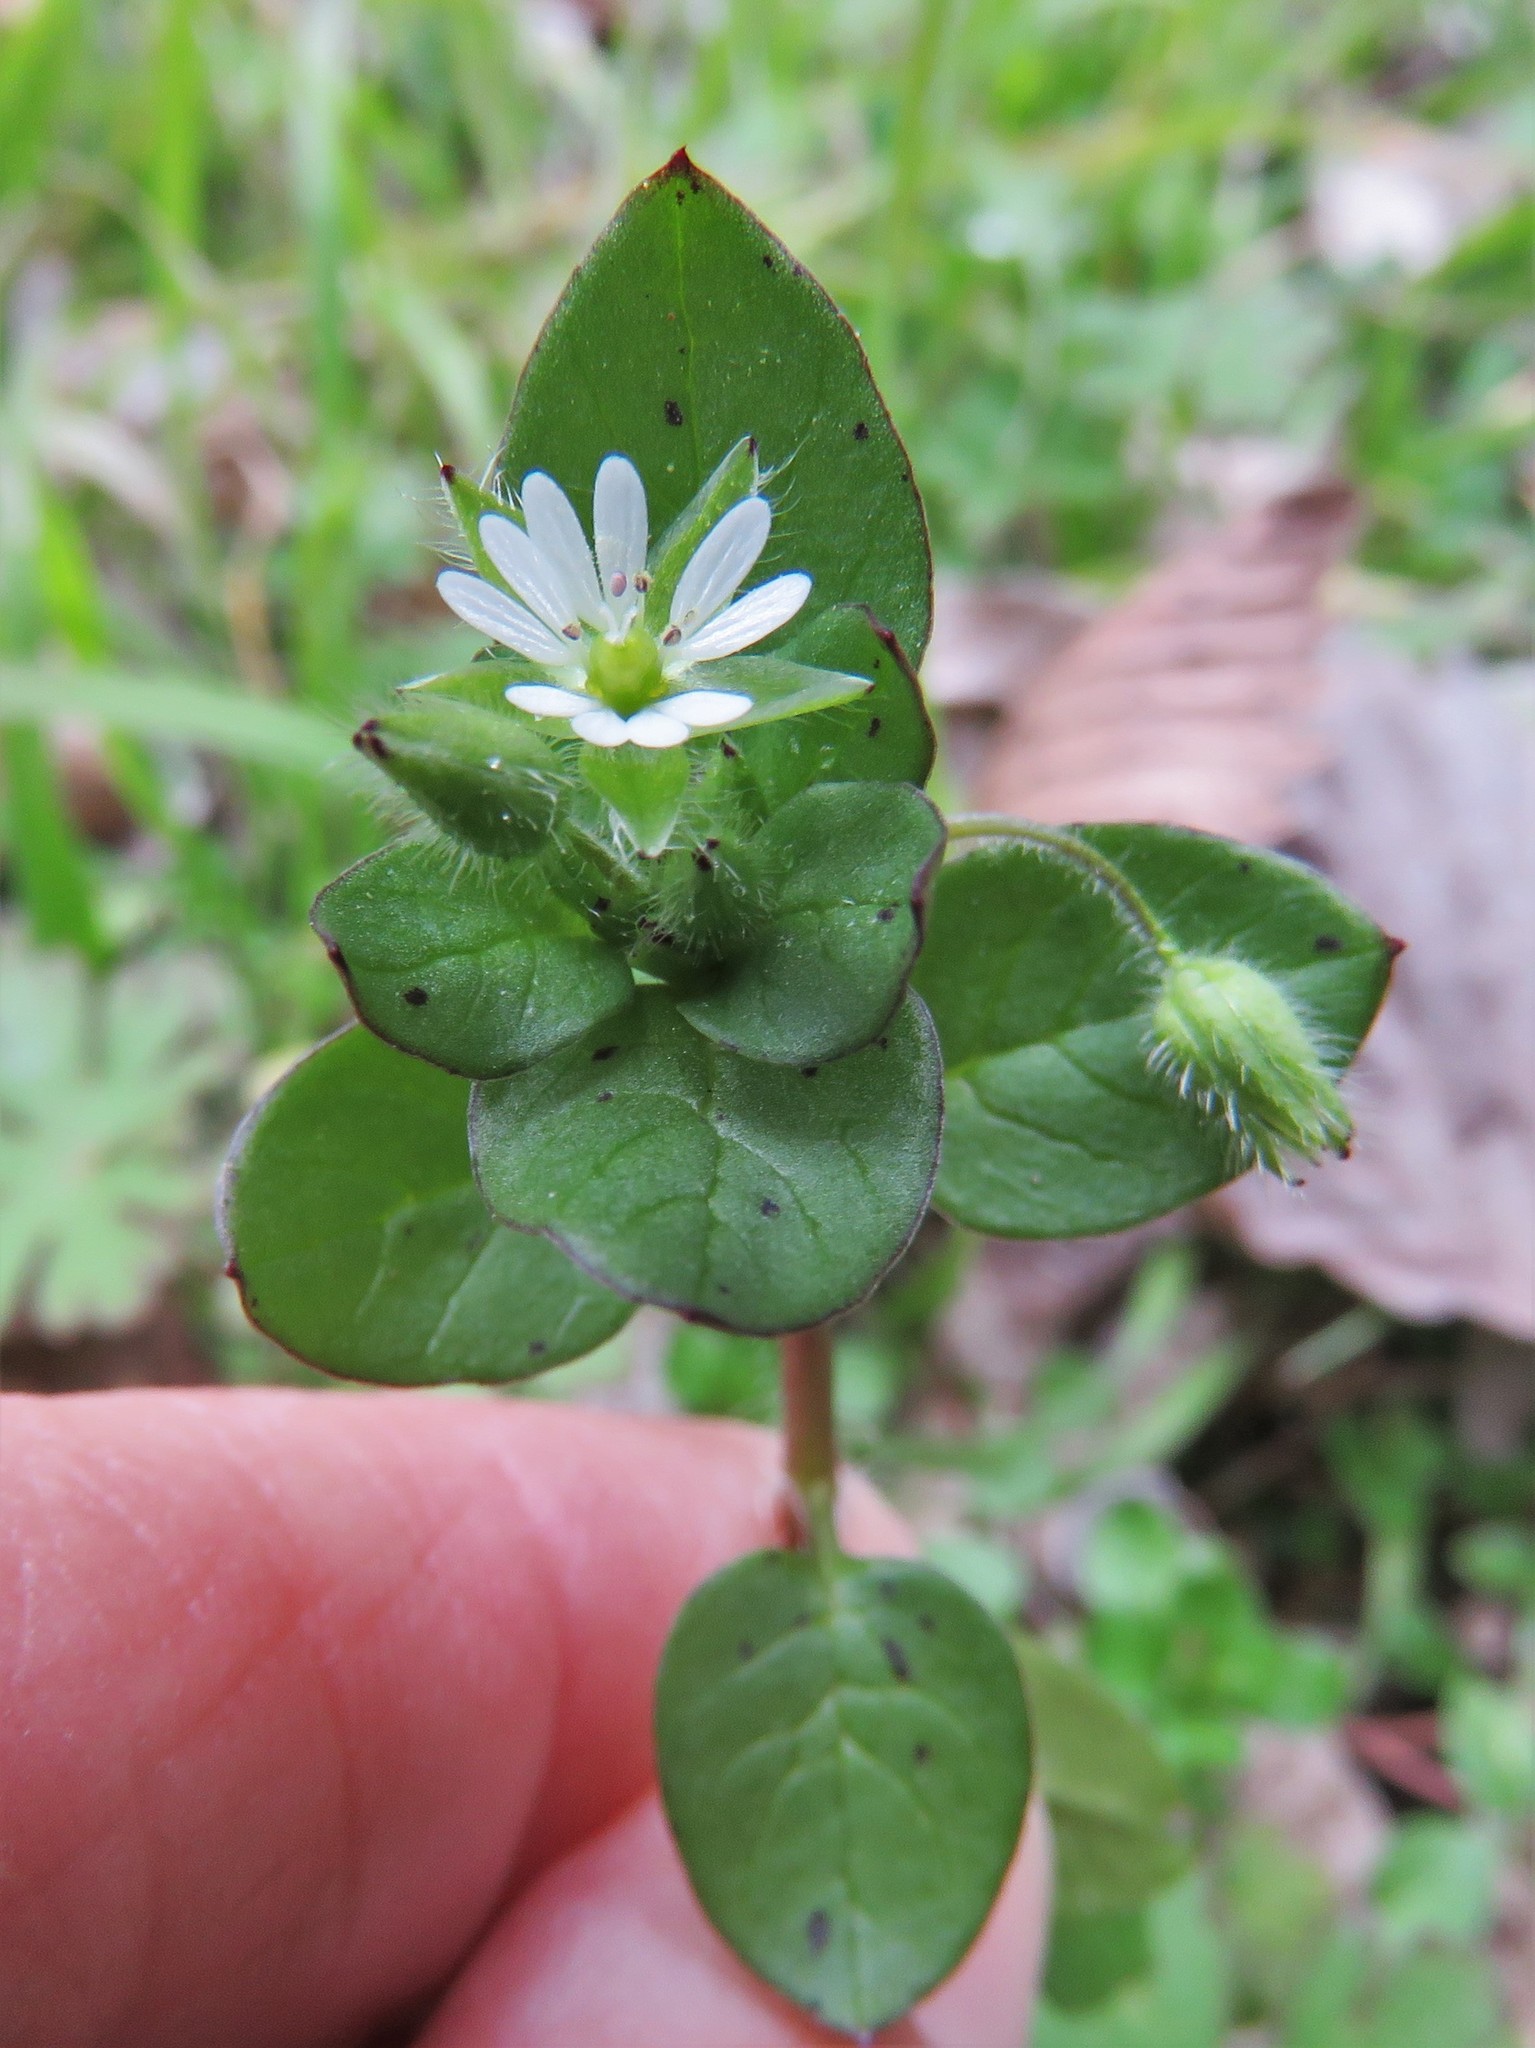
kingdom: Plantae
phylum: Tracheophyta
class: Magnoliopsida
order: Caryophyllales
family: Caryophyllaceae
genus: Stellaria
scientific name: Stellaria media
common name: Common chickweed
